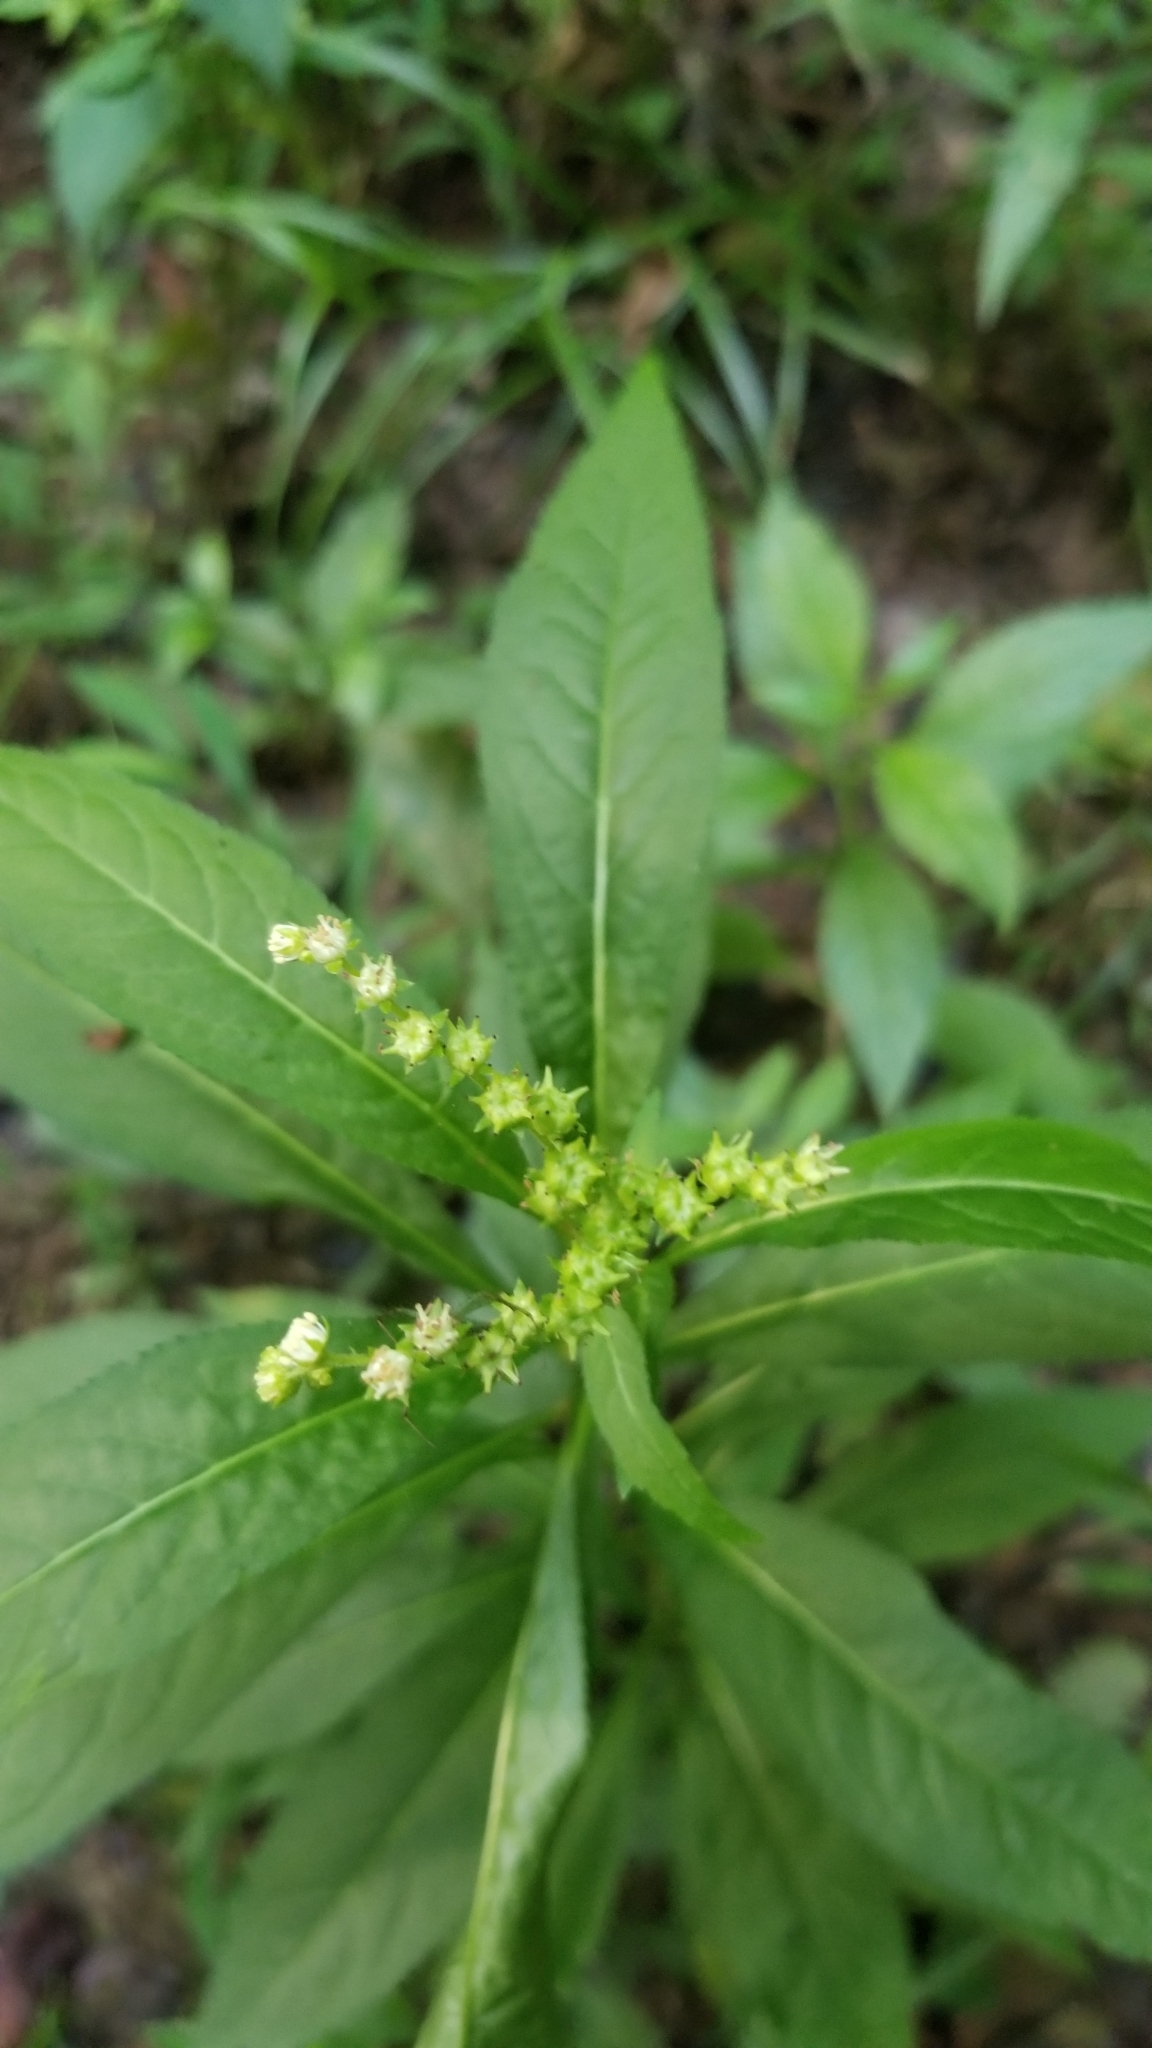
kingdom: Plantae
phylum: Tracheophyta
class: Magnoliopsida
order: Saxifragales
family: Penthoraceae
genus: Penthorum
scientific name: Penthorum sedoides
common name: Ditch stonecrop
